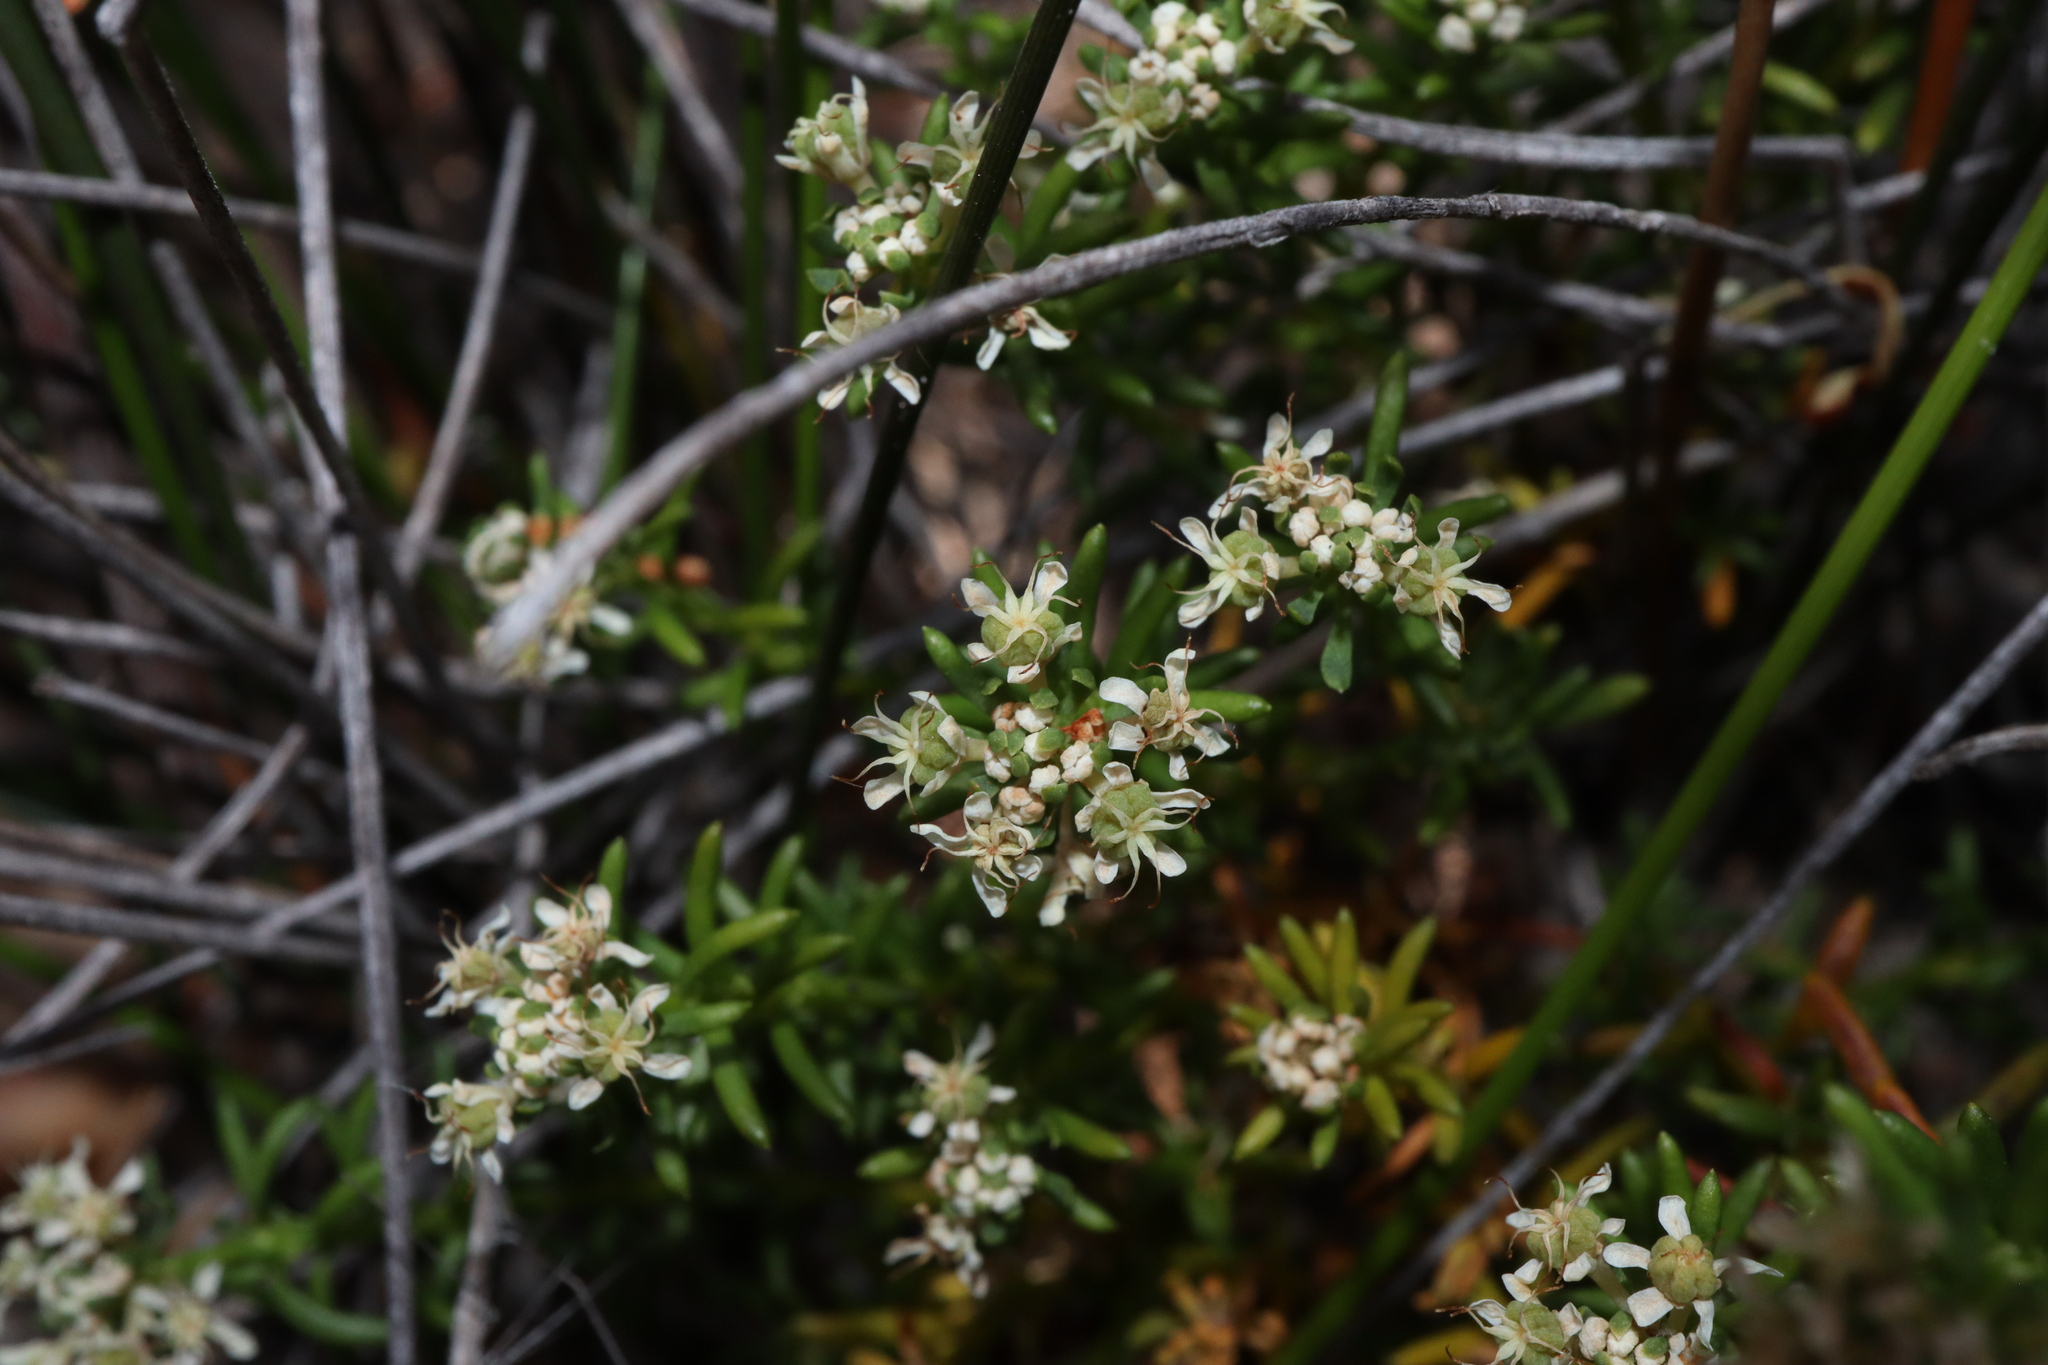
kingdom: Plantae
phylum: Tracheophyta
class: Magnoliopsida
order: Malpighiales
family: Phyllanthaceae
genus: Poranthera
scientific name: Poranthera ericoides
